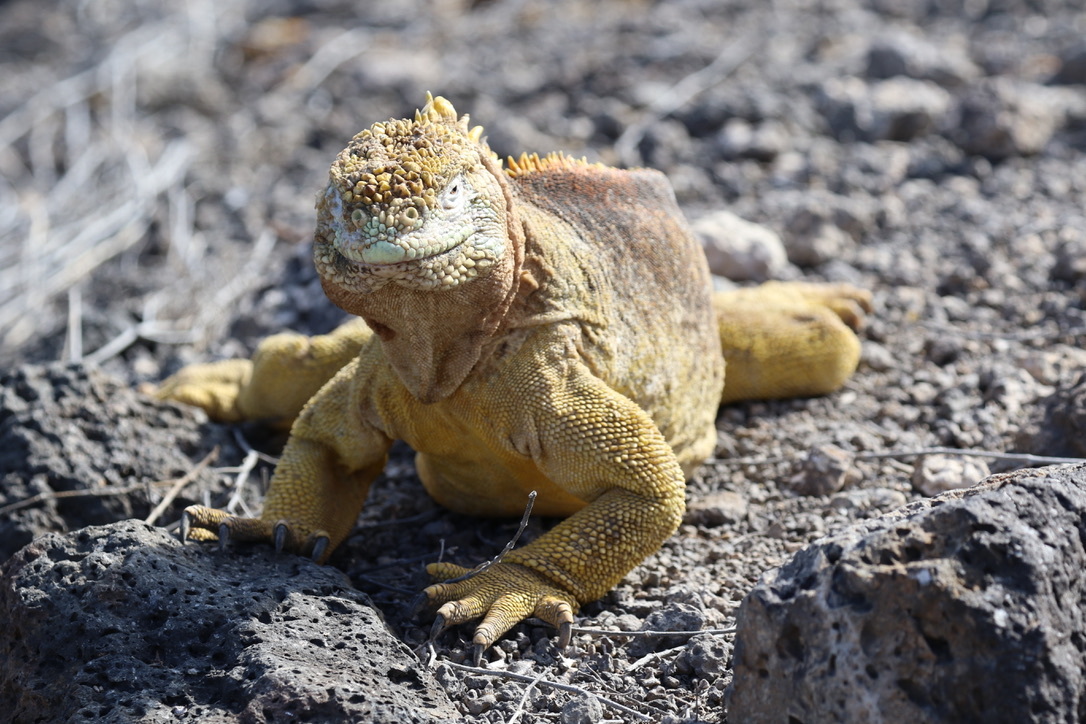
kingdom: Animalia
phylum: Chordata
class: Squamata
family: Iguanidae
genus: Conolophus
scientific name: Conolophus subcristatus
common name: Galapagos land iguana
